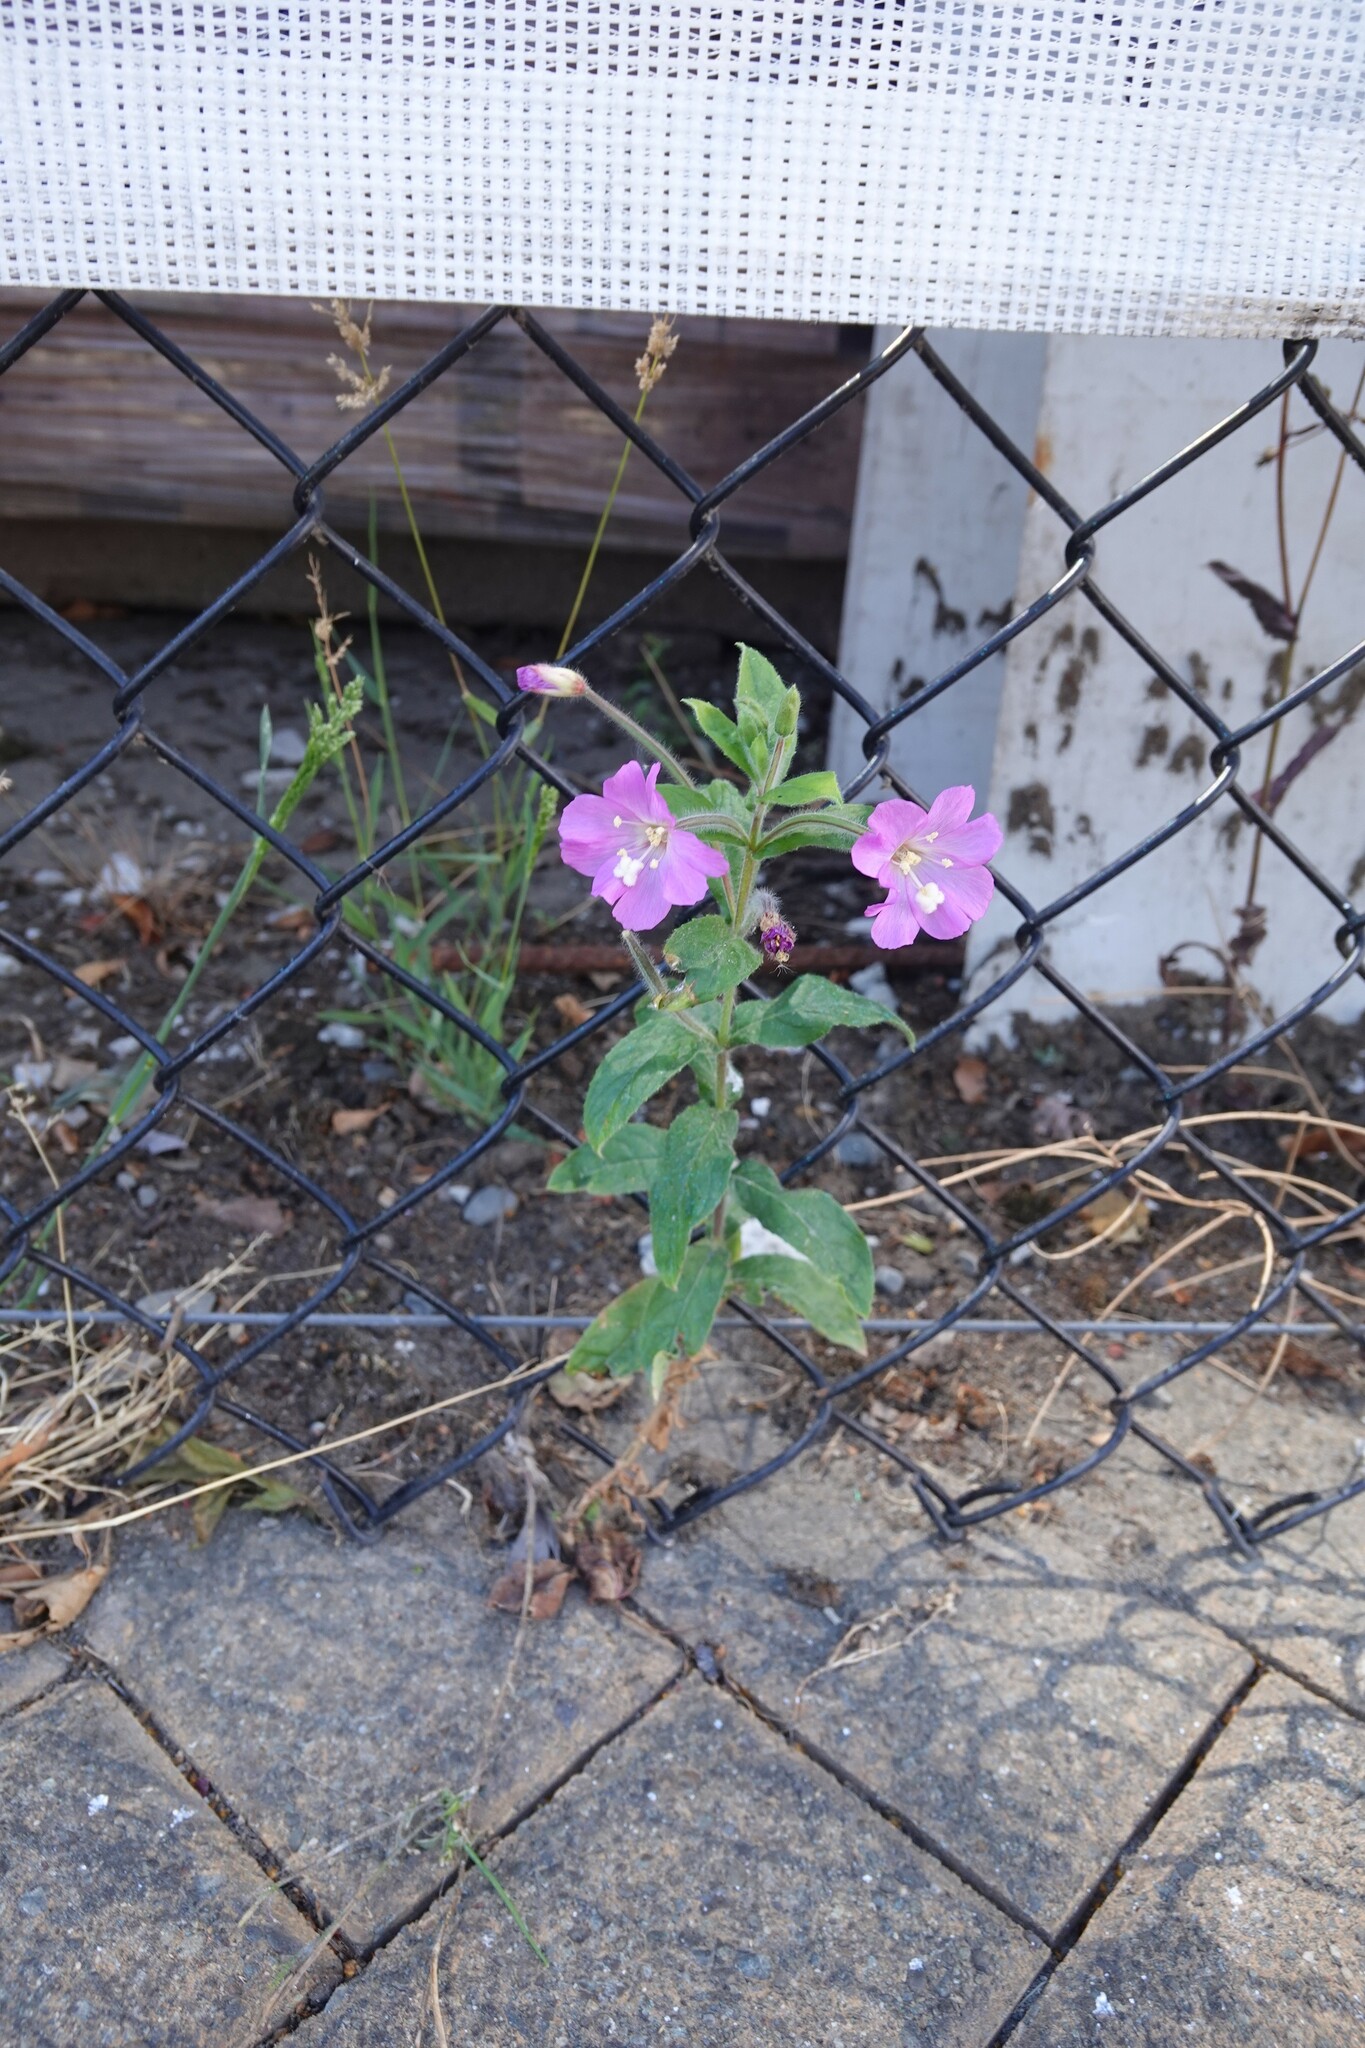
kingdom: Plantae
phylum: Tracheophyta
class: Magnoliopsida
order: Myrtales
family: Onagraceae
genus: Epilobium
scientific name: Epilobium hirsutum
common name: Great willowherb
